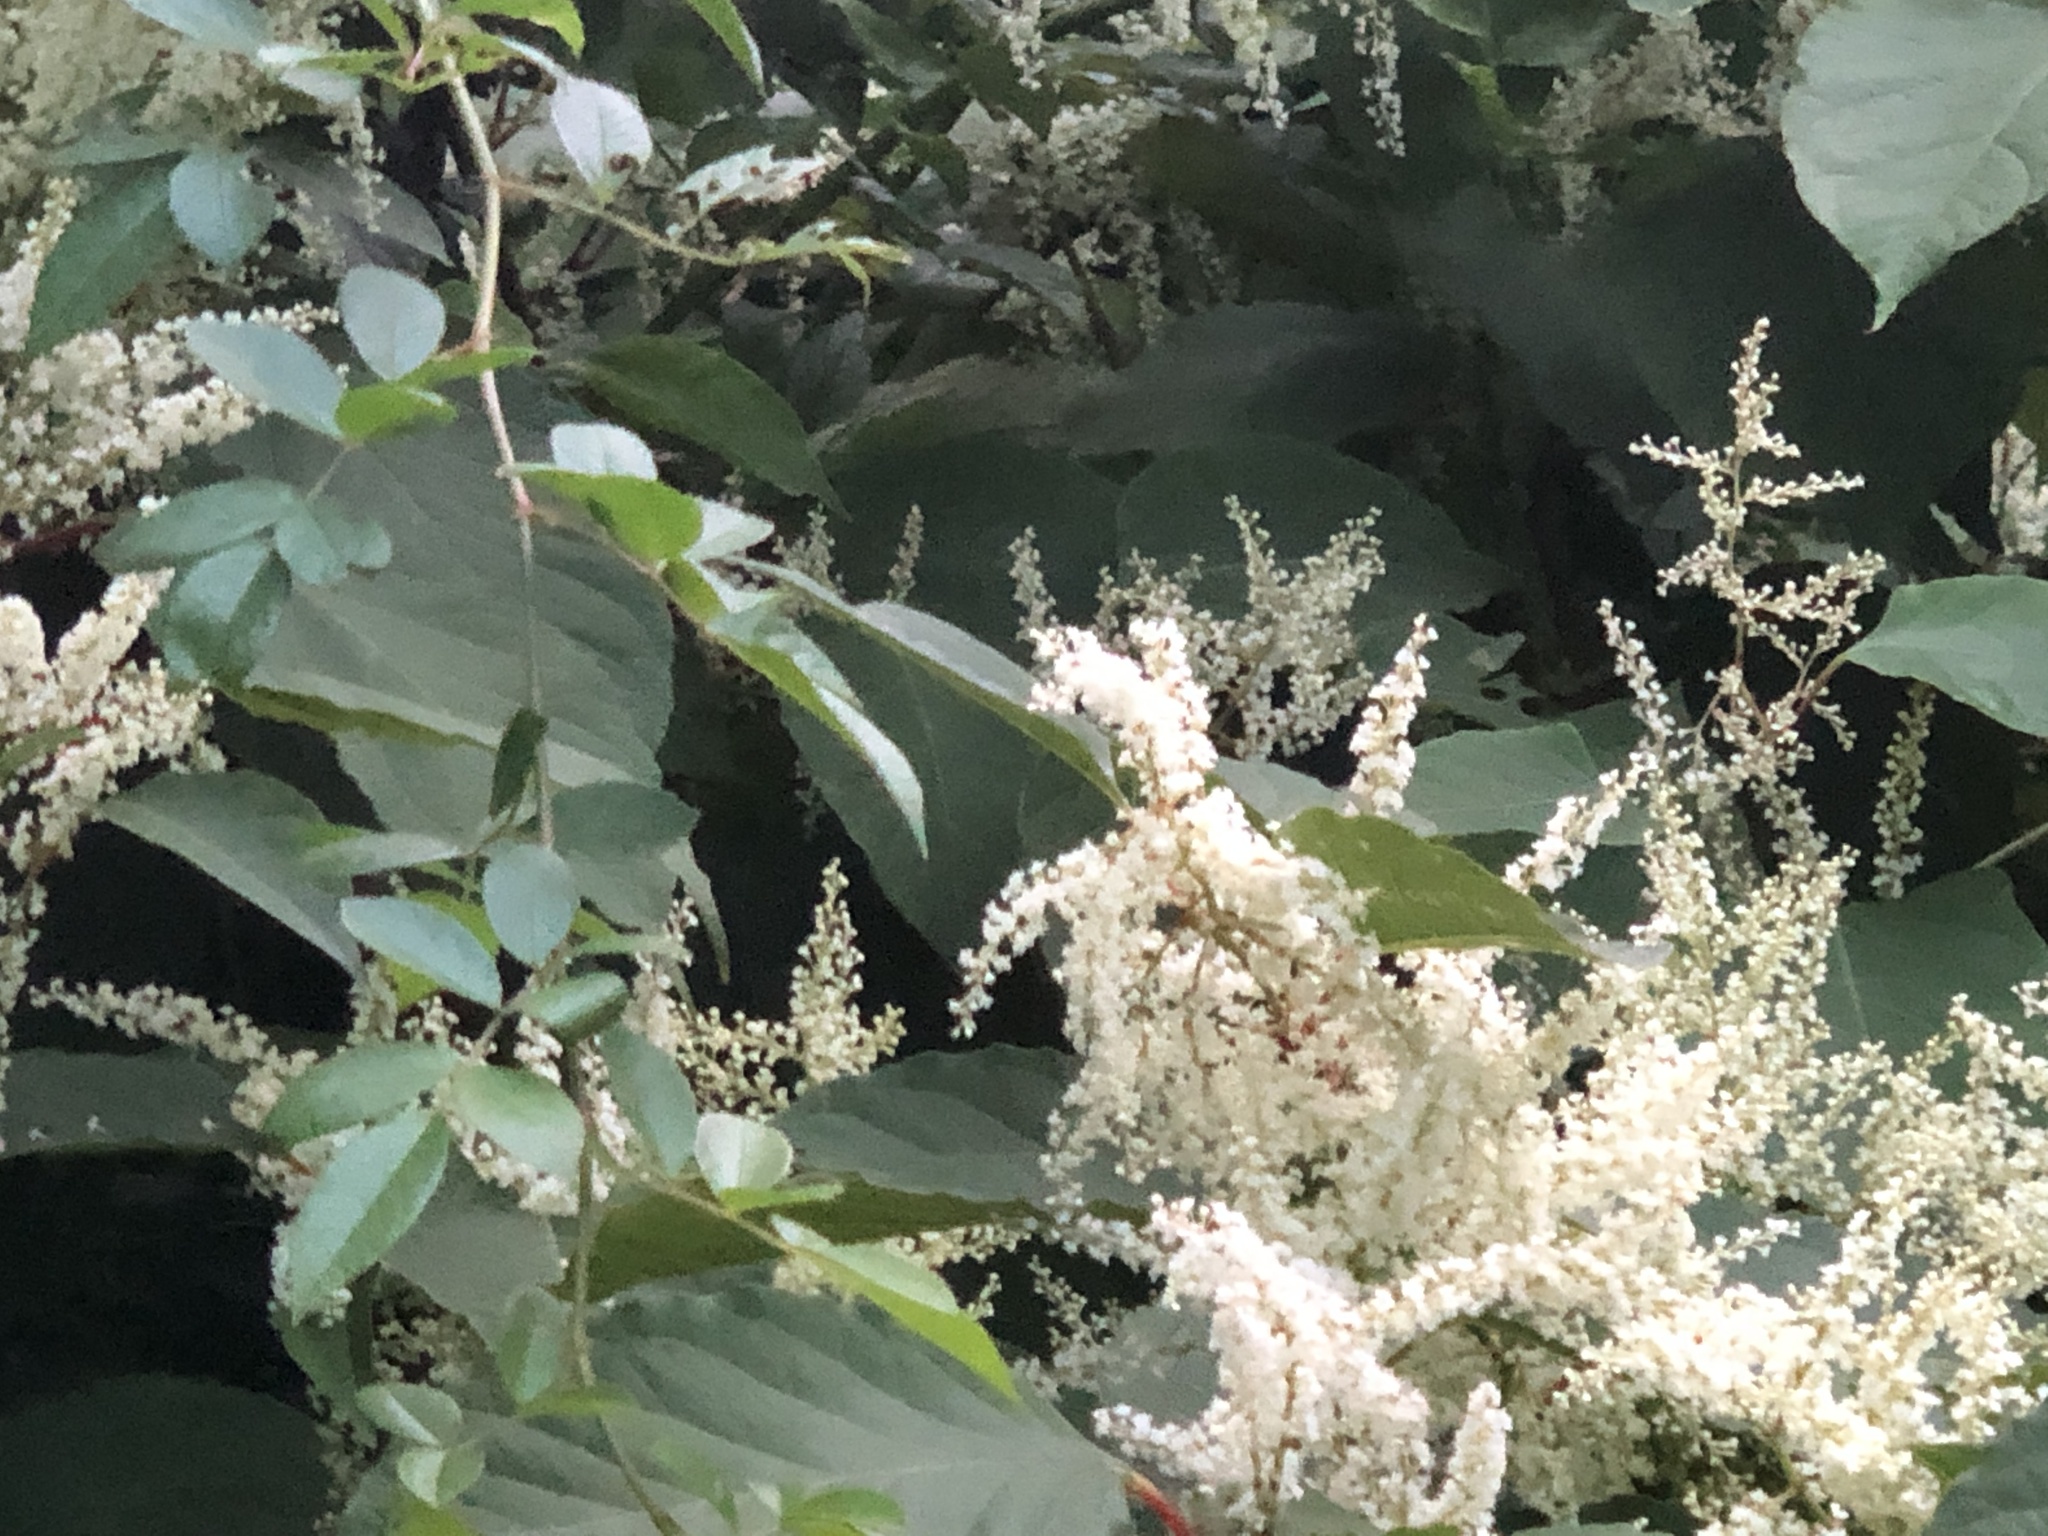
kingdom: Plantae
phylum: Tracheophyta
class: Magnoliopsida
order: Caryophyllales
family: Polygonaceae
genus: Reynoutria
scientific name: Reynoutria japonica
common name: Japanese knotweed
